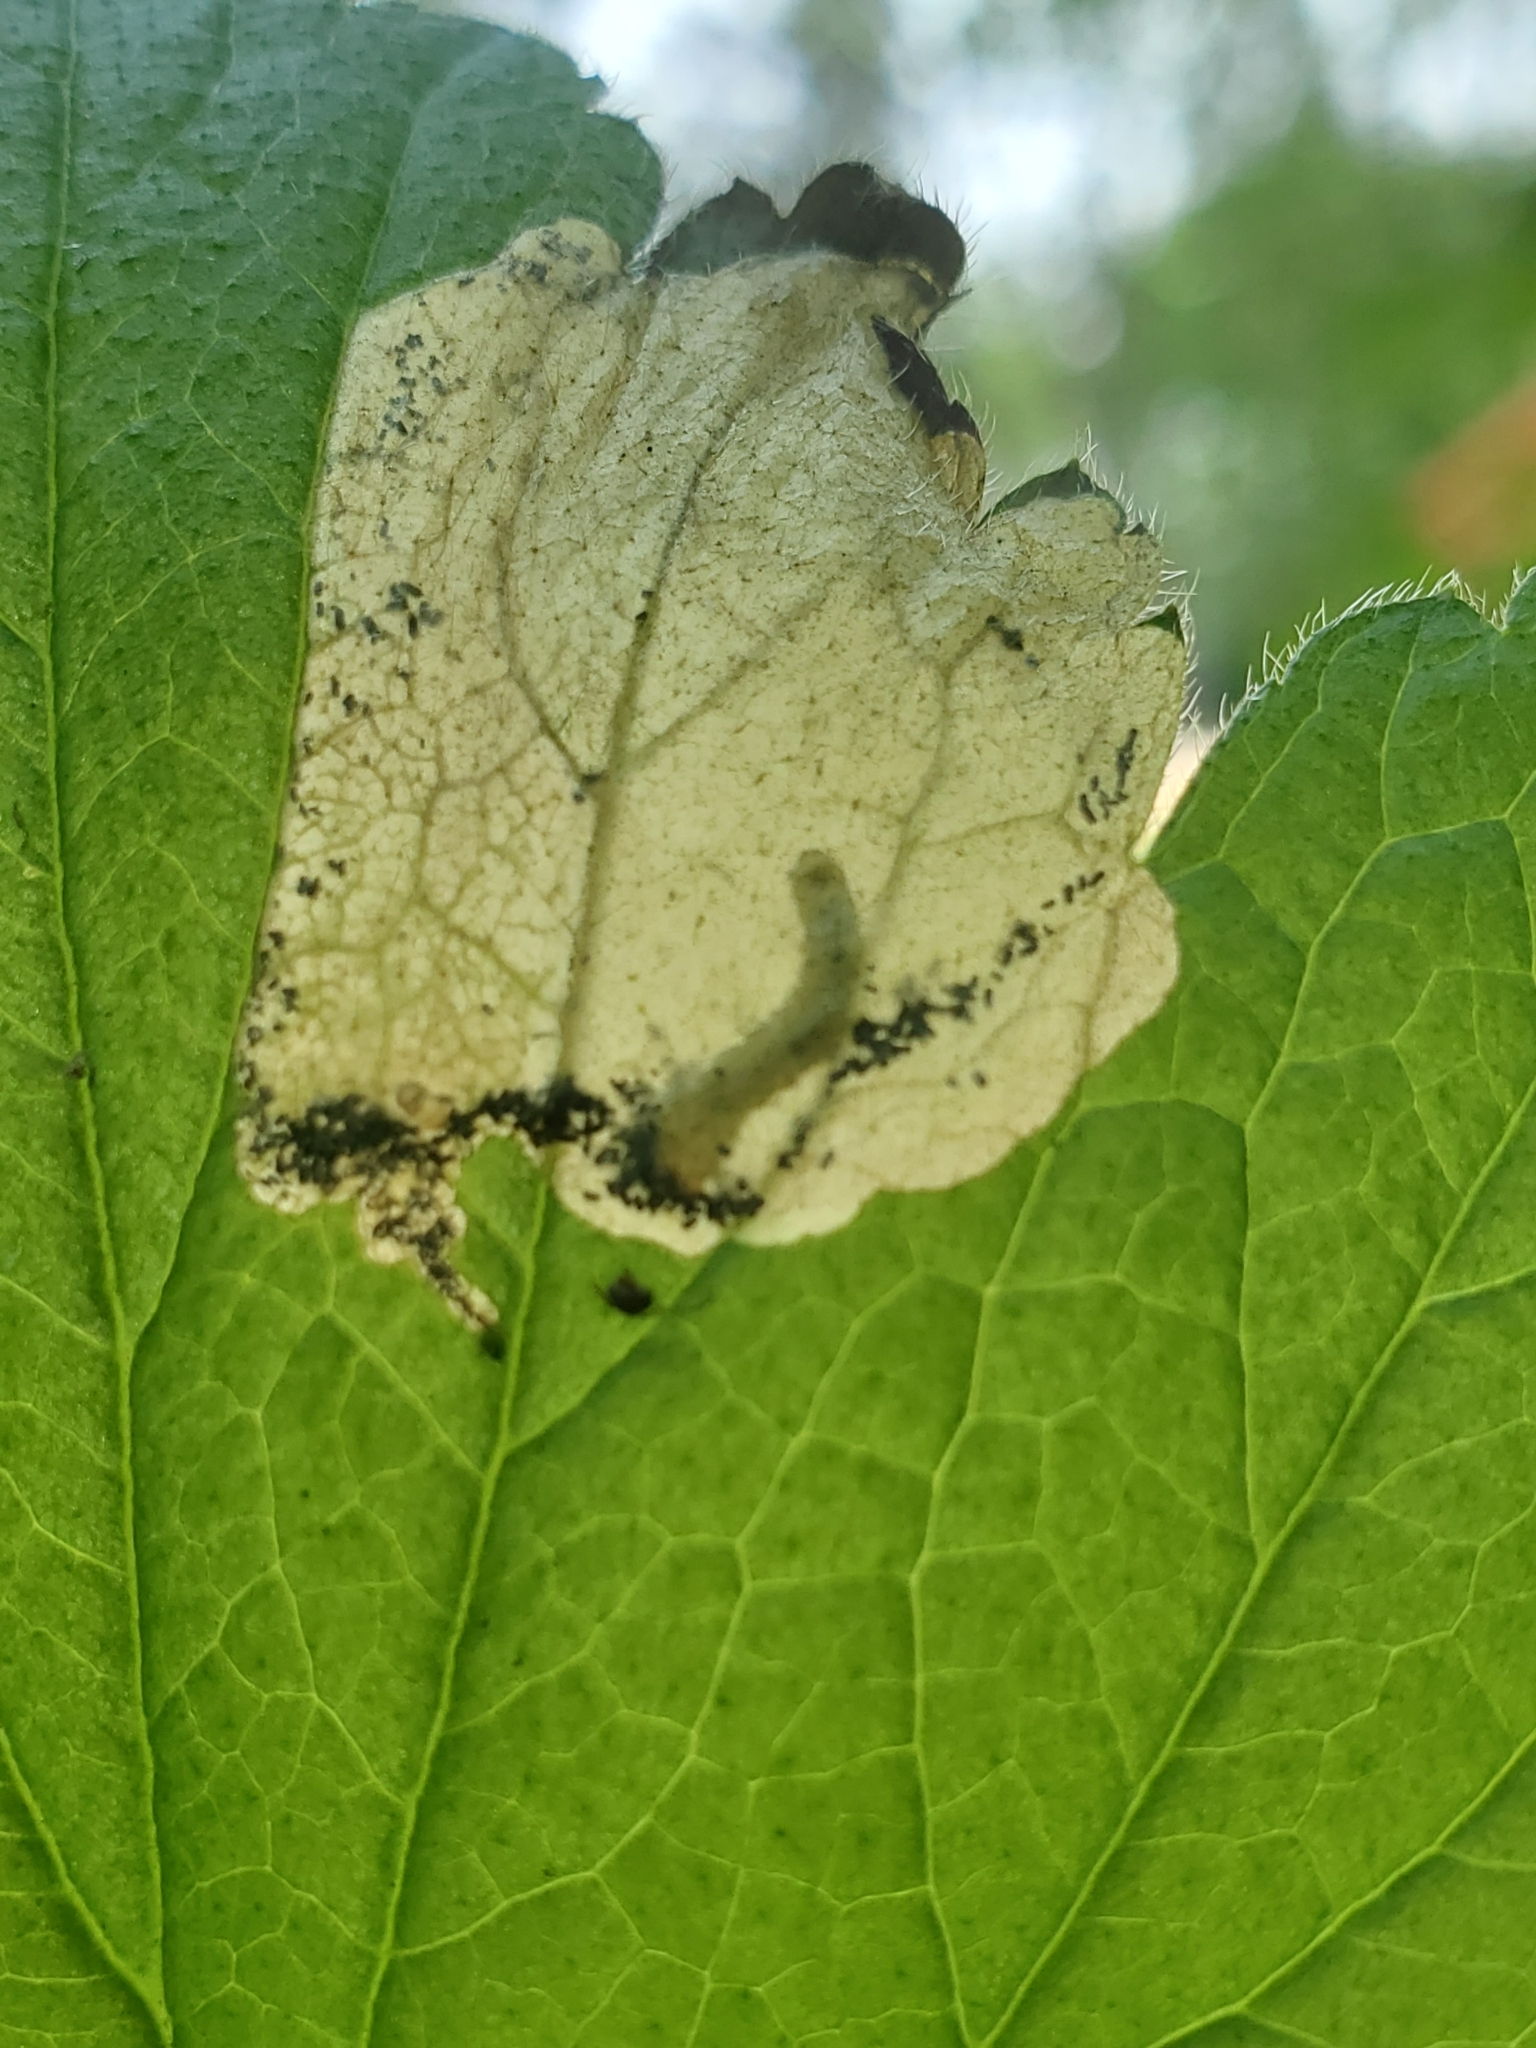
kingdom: Animalia
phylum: Arthropoda
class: Insecta
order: Hymenoptera
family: Tenthredinidae
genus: Metallus
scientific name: Metallus lanceolatus
